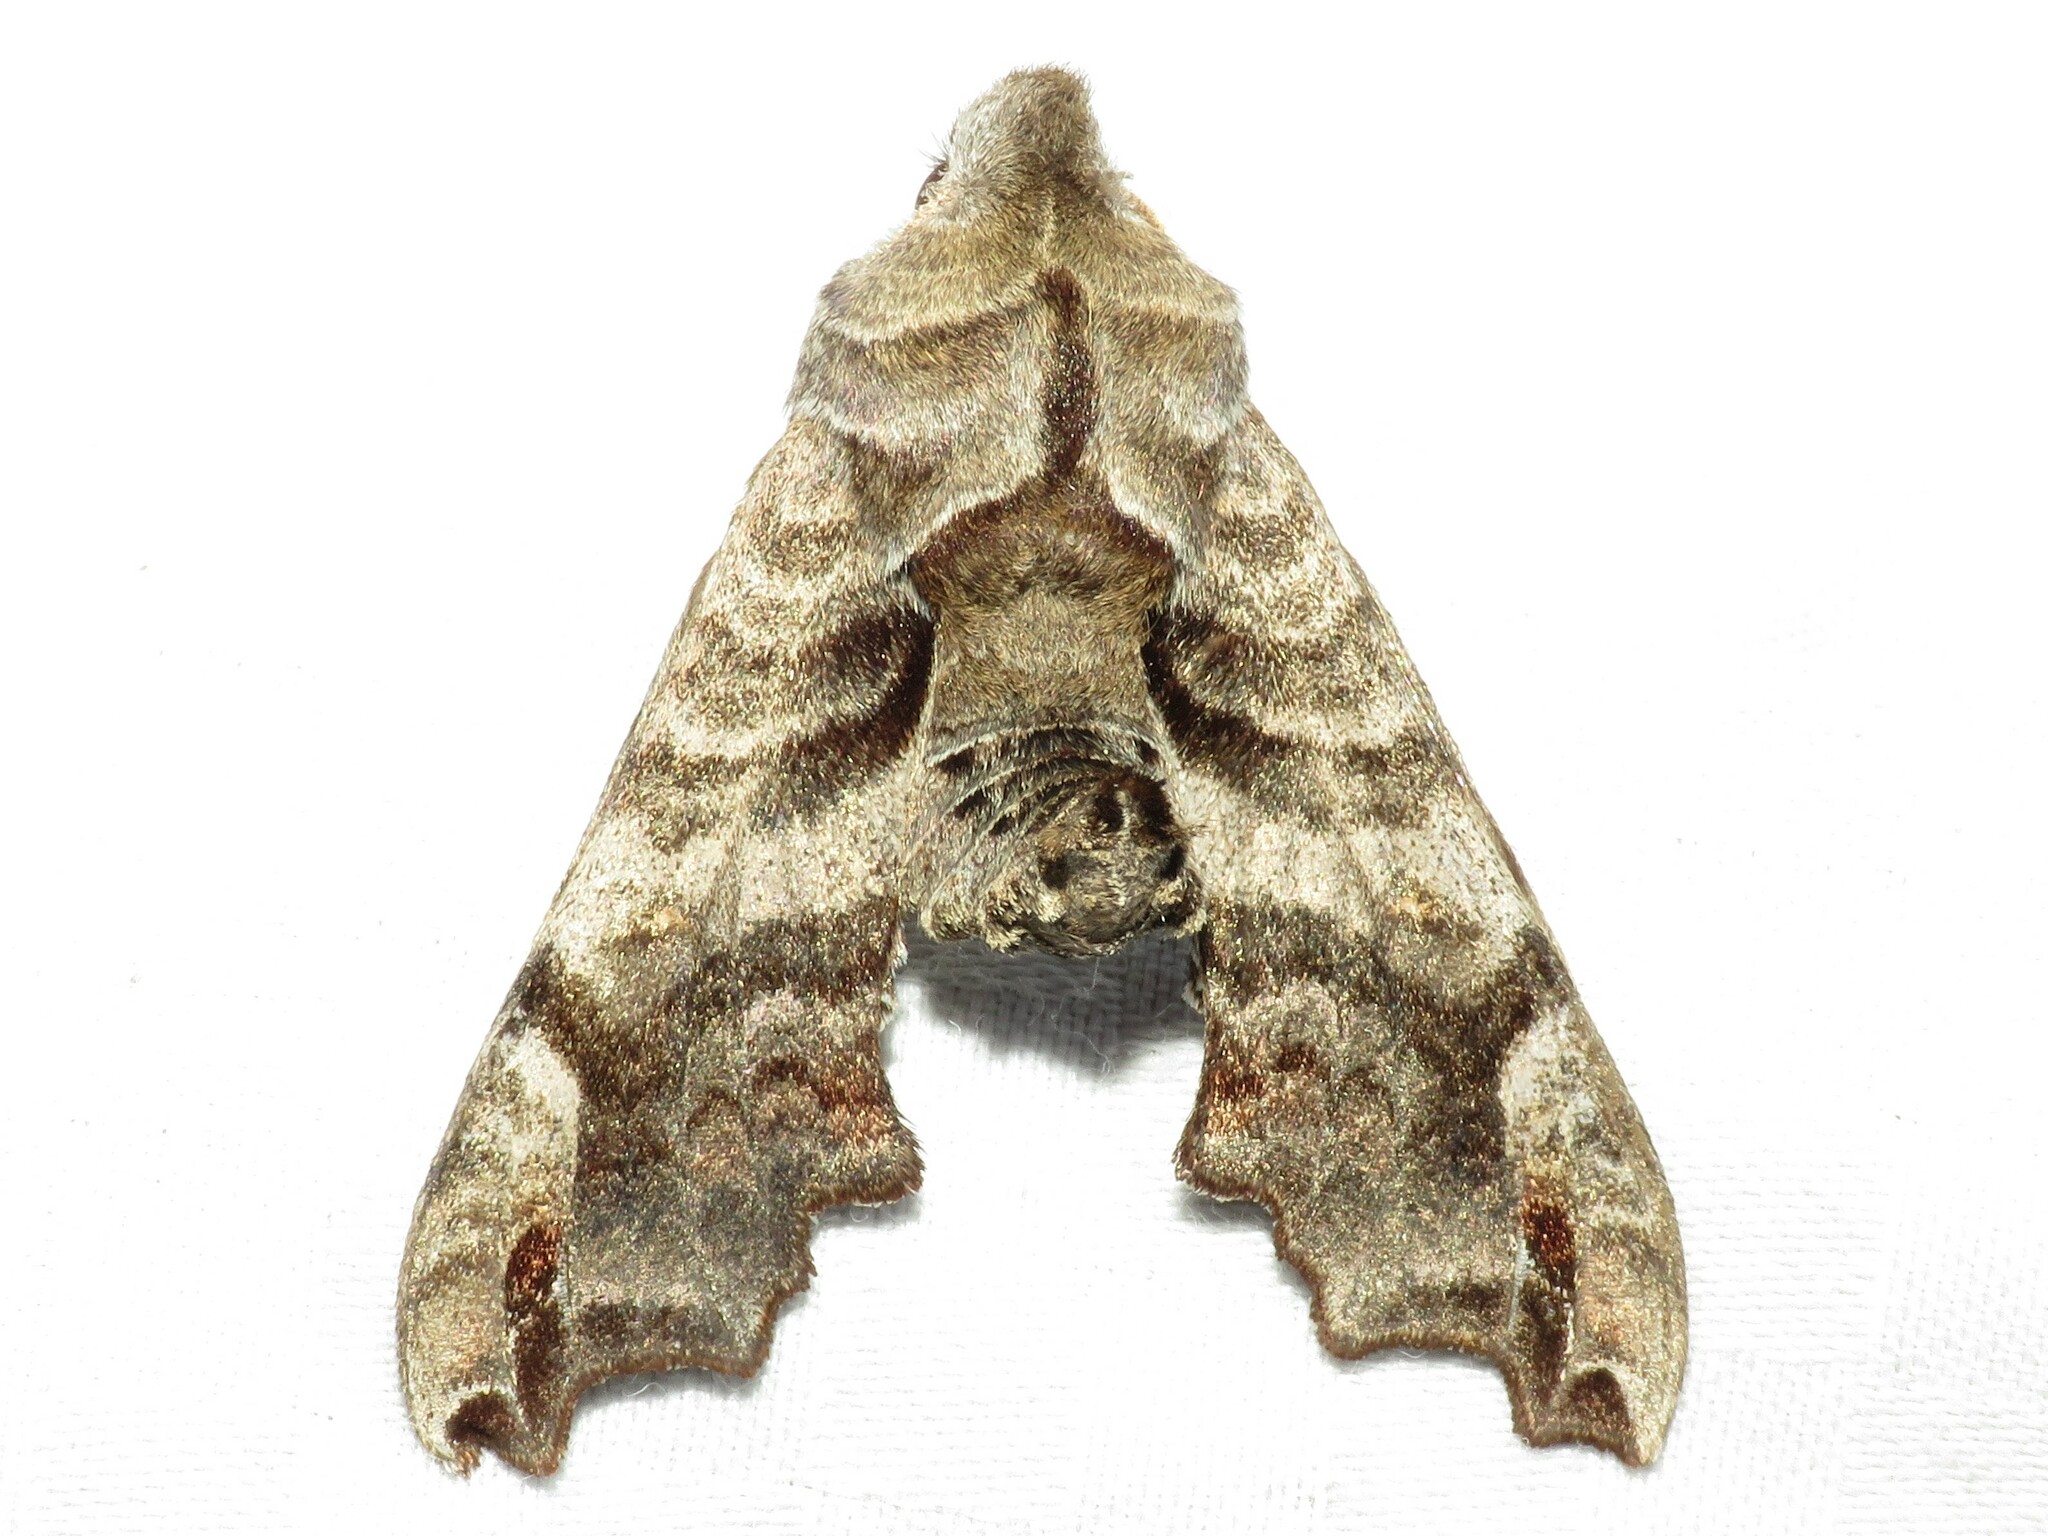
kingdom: Animalia
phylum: Arthropoda
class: Insecta
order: Lepidoptera
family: Sphingidae
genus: Deidamia
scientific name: Deidamia inscriptum
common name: Lettered sphinx
